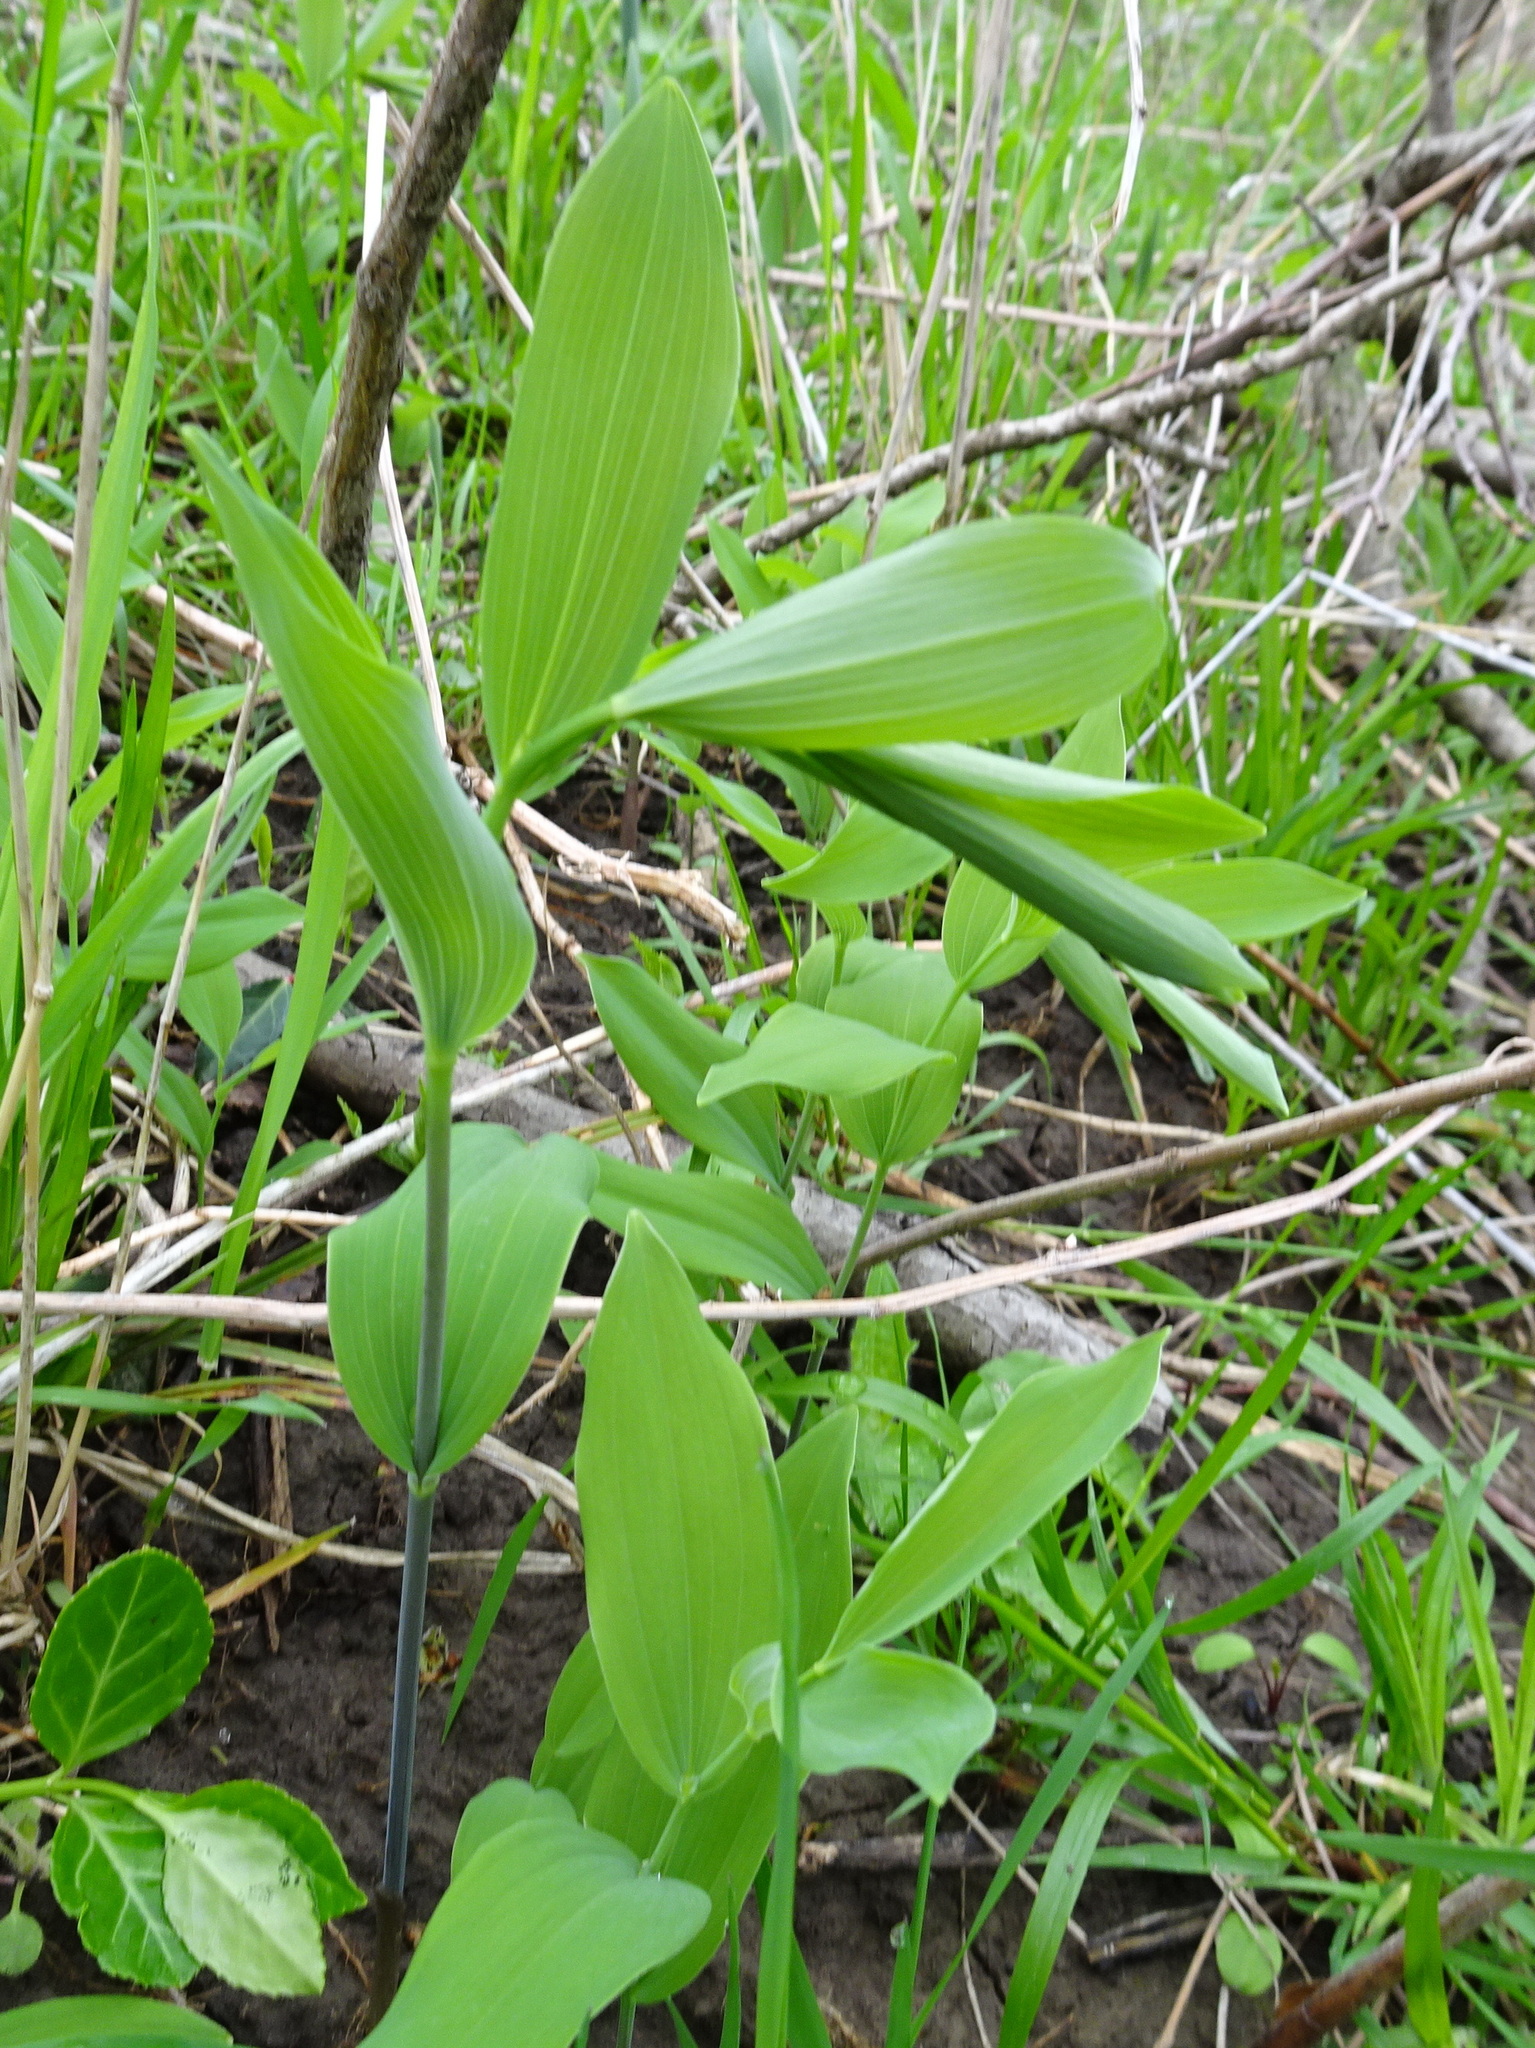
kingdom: Plantae
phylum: Tracheophyta
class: Liliopsida
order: Asparagales
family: Asparagaceae
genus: Polygonatum
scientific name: Polygonatum biflorum
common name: American solomon's-seal
